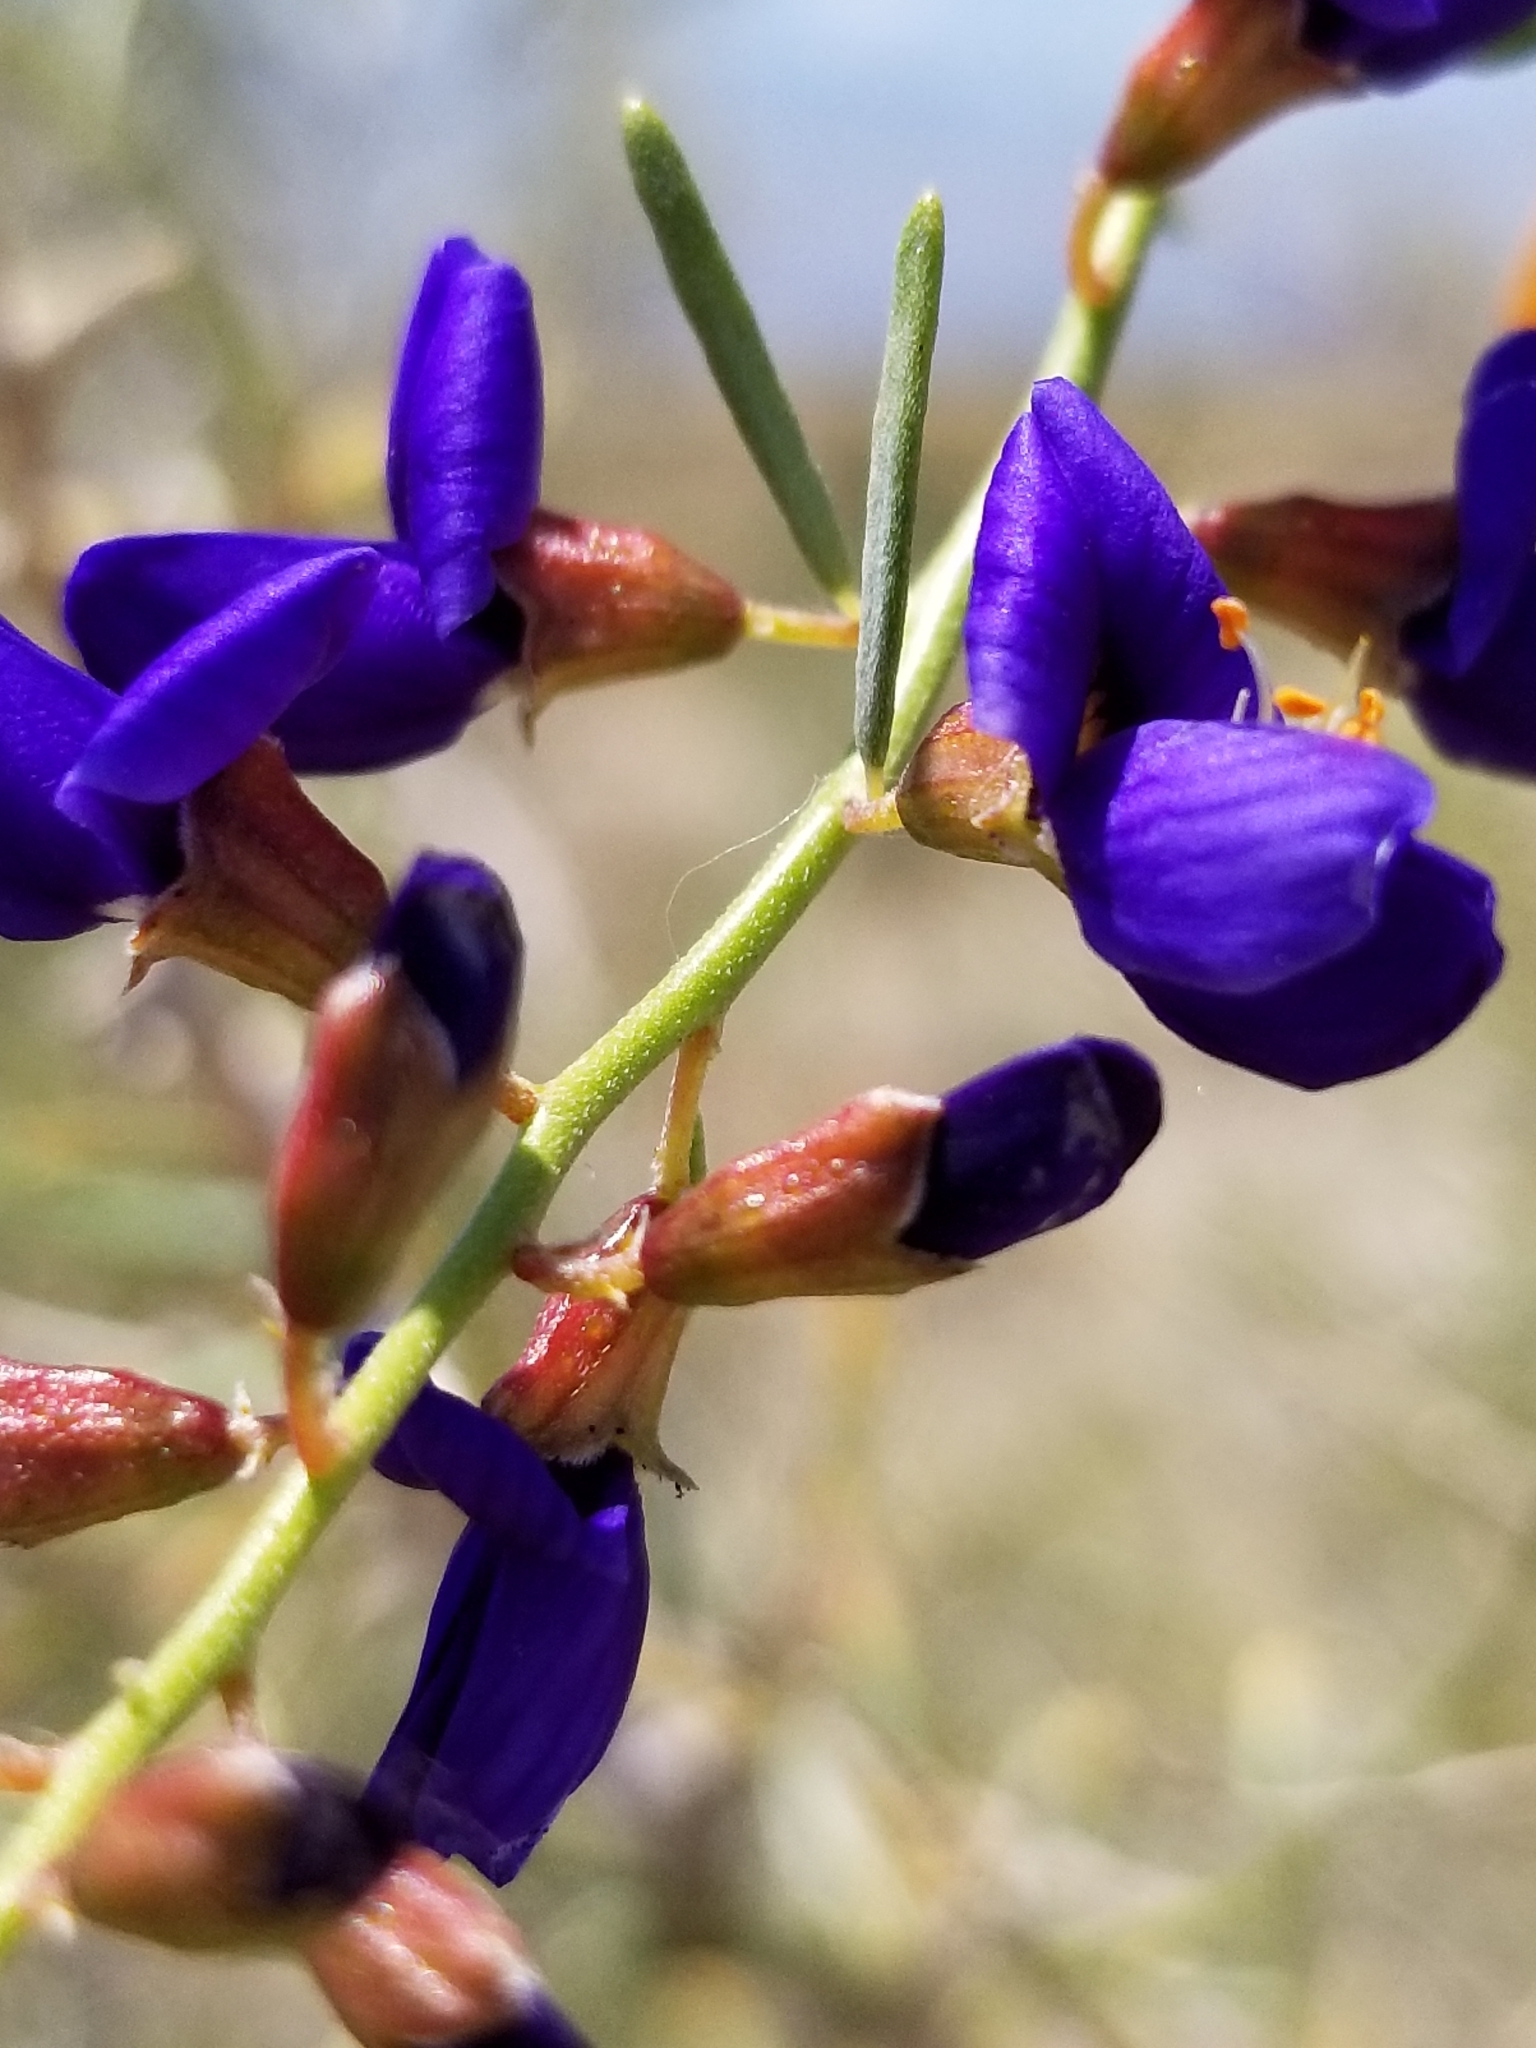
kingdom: Plantae
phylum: Tracheophyta
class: Magnoliopsida
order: Fabales
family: Fabaceae
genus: Psorothamnus
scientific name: Psorothamnus schottii
